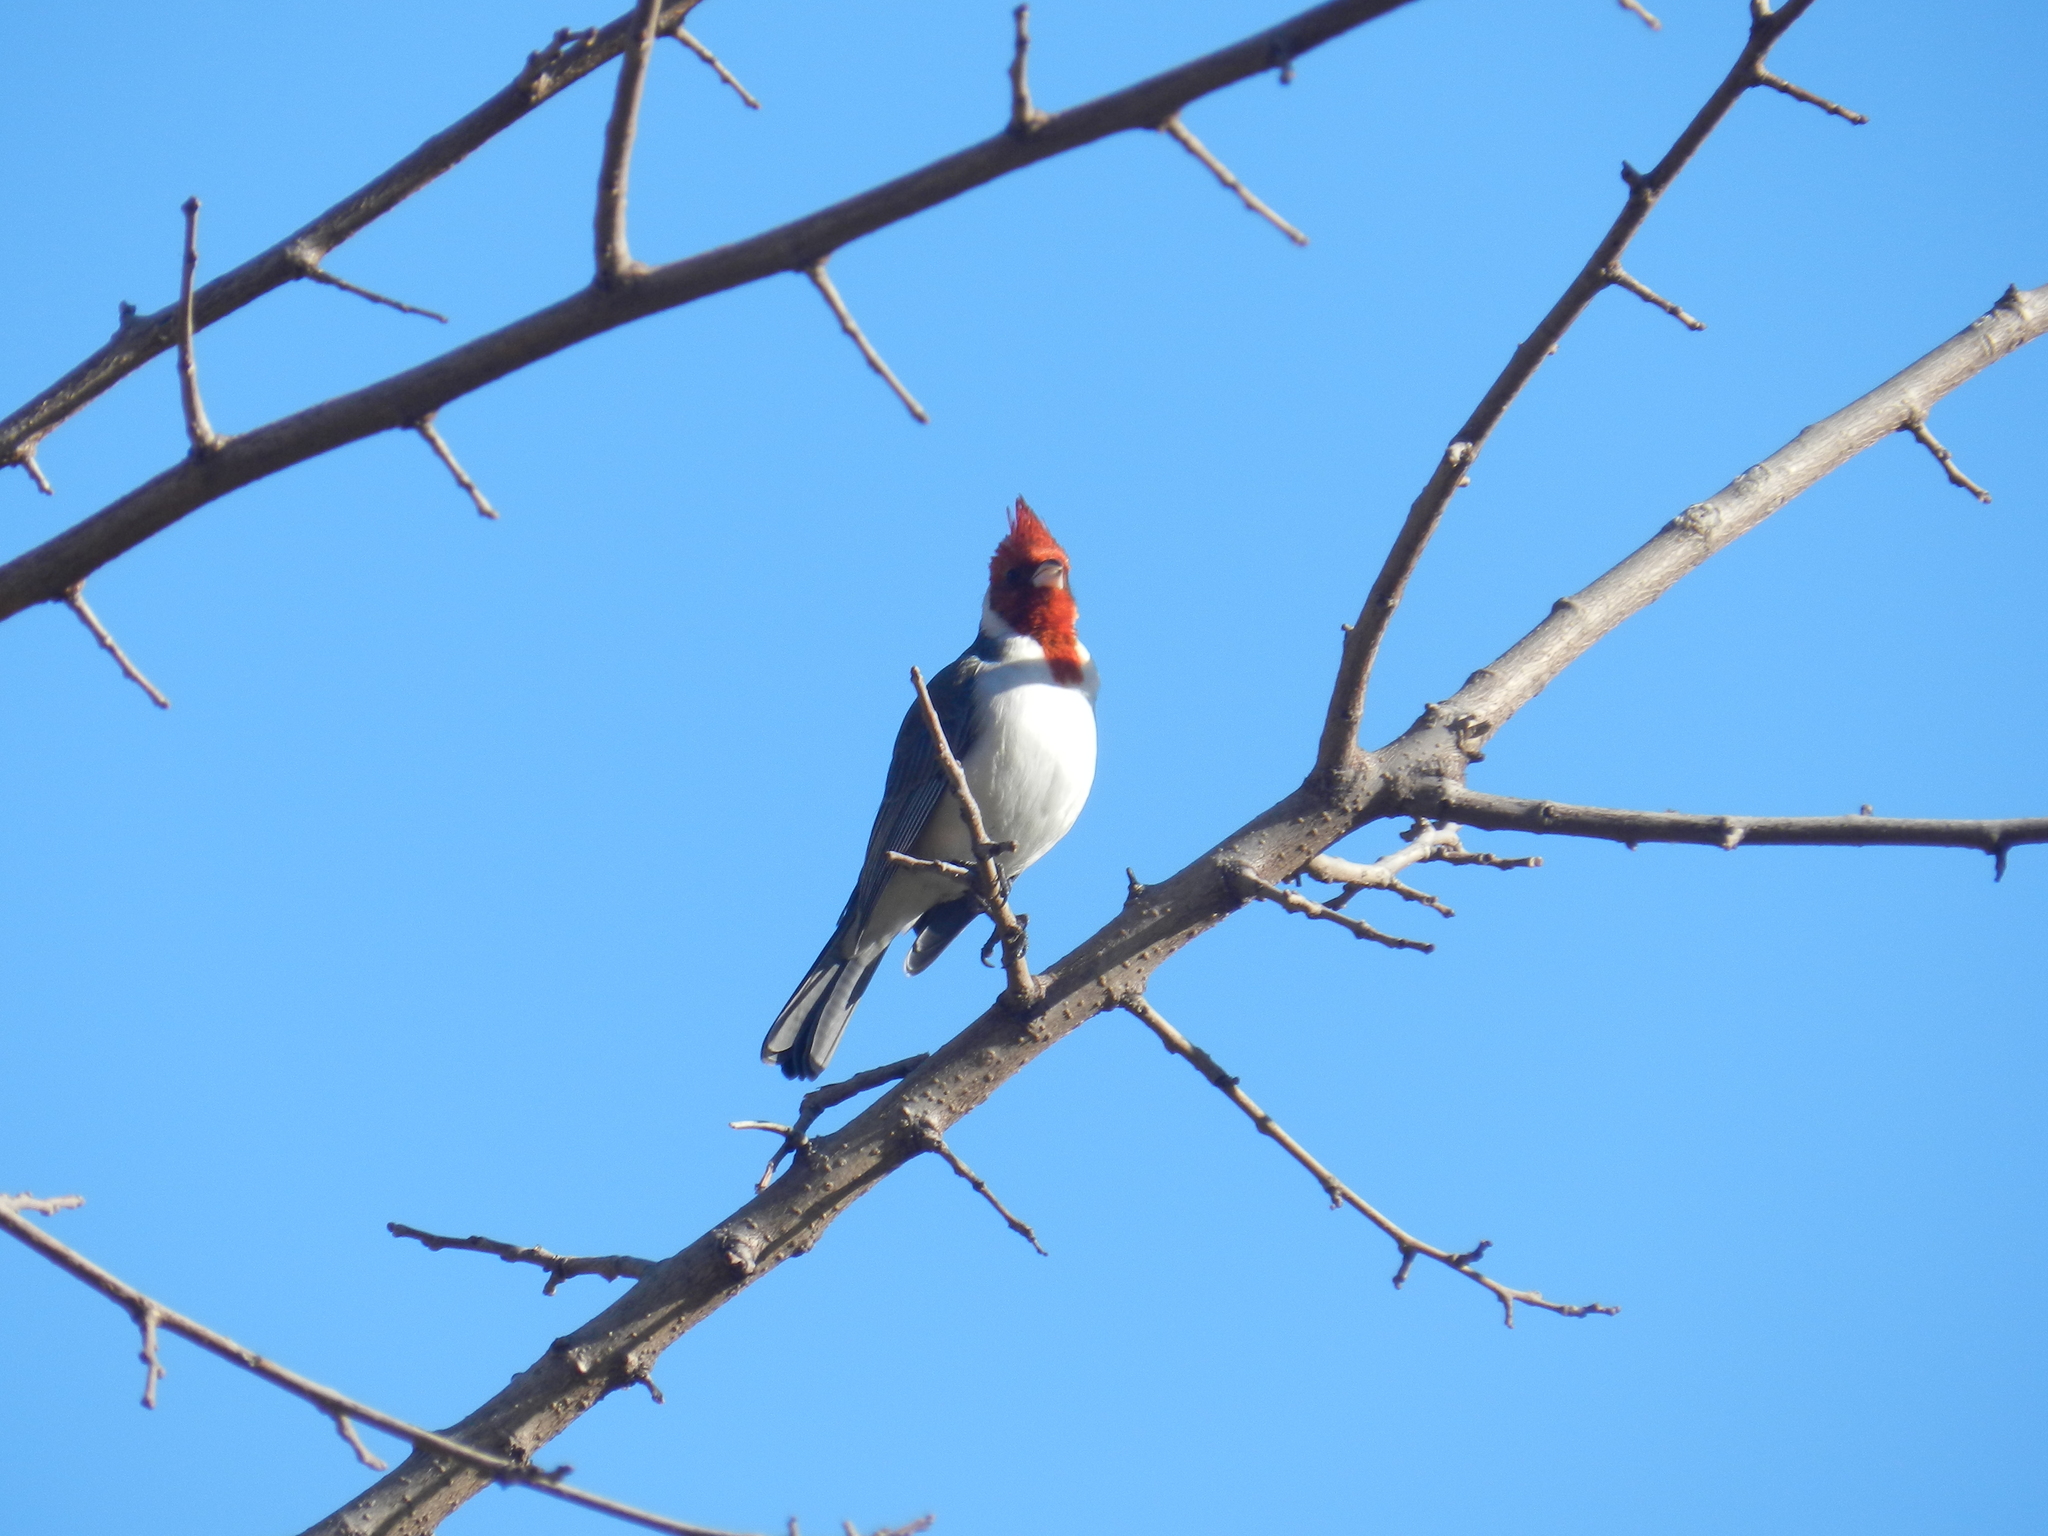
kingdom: Animalia
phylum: Chordata
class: Aves
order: Passeriformes
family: Thraupidae
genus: Paroaria
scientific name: Paroaria coronata
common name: Red-crested cardinal
